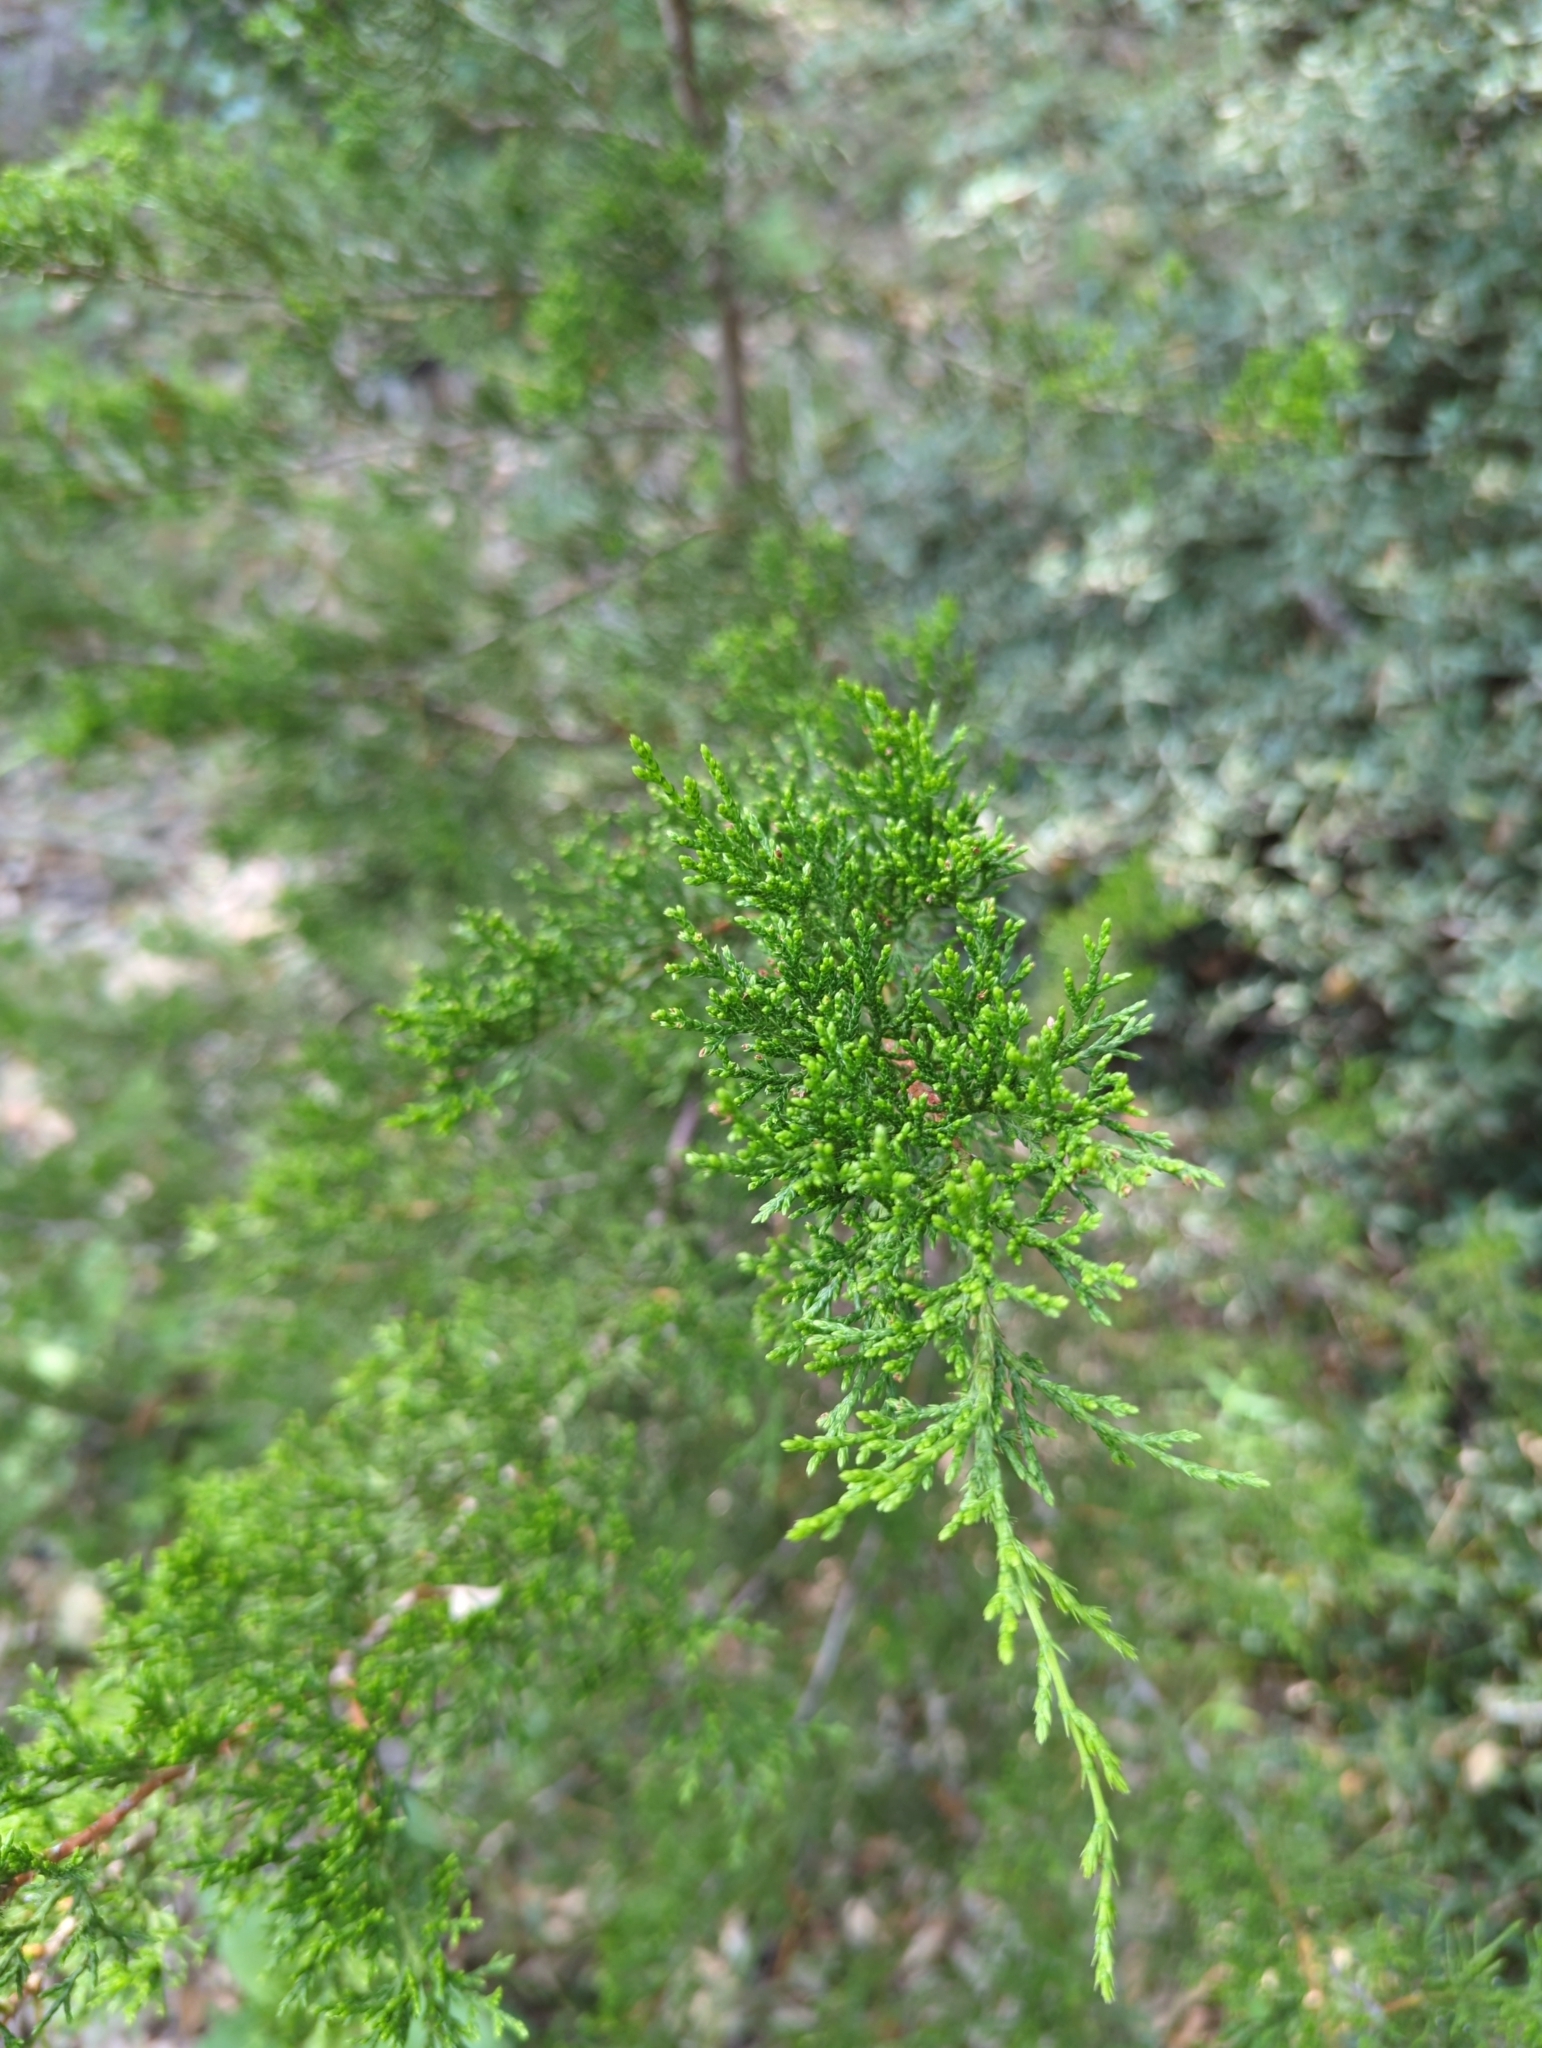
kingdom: Plantae
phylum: Tracheophyta
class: Pinopsida
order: Pinales
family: Cupressaceae
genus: Juniperus
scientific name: Juniperus ashei
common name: Mexican juniper
